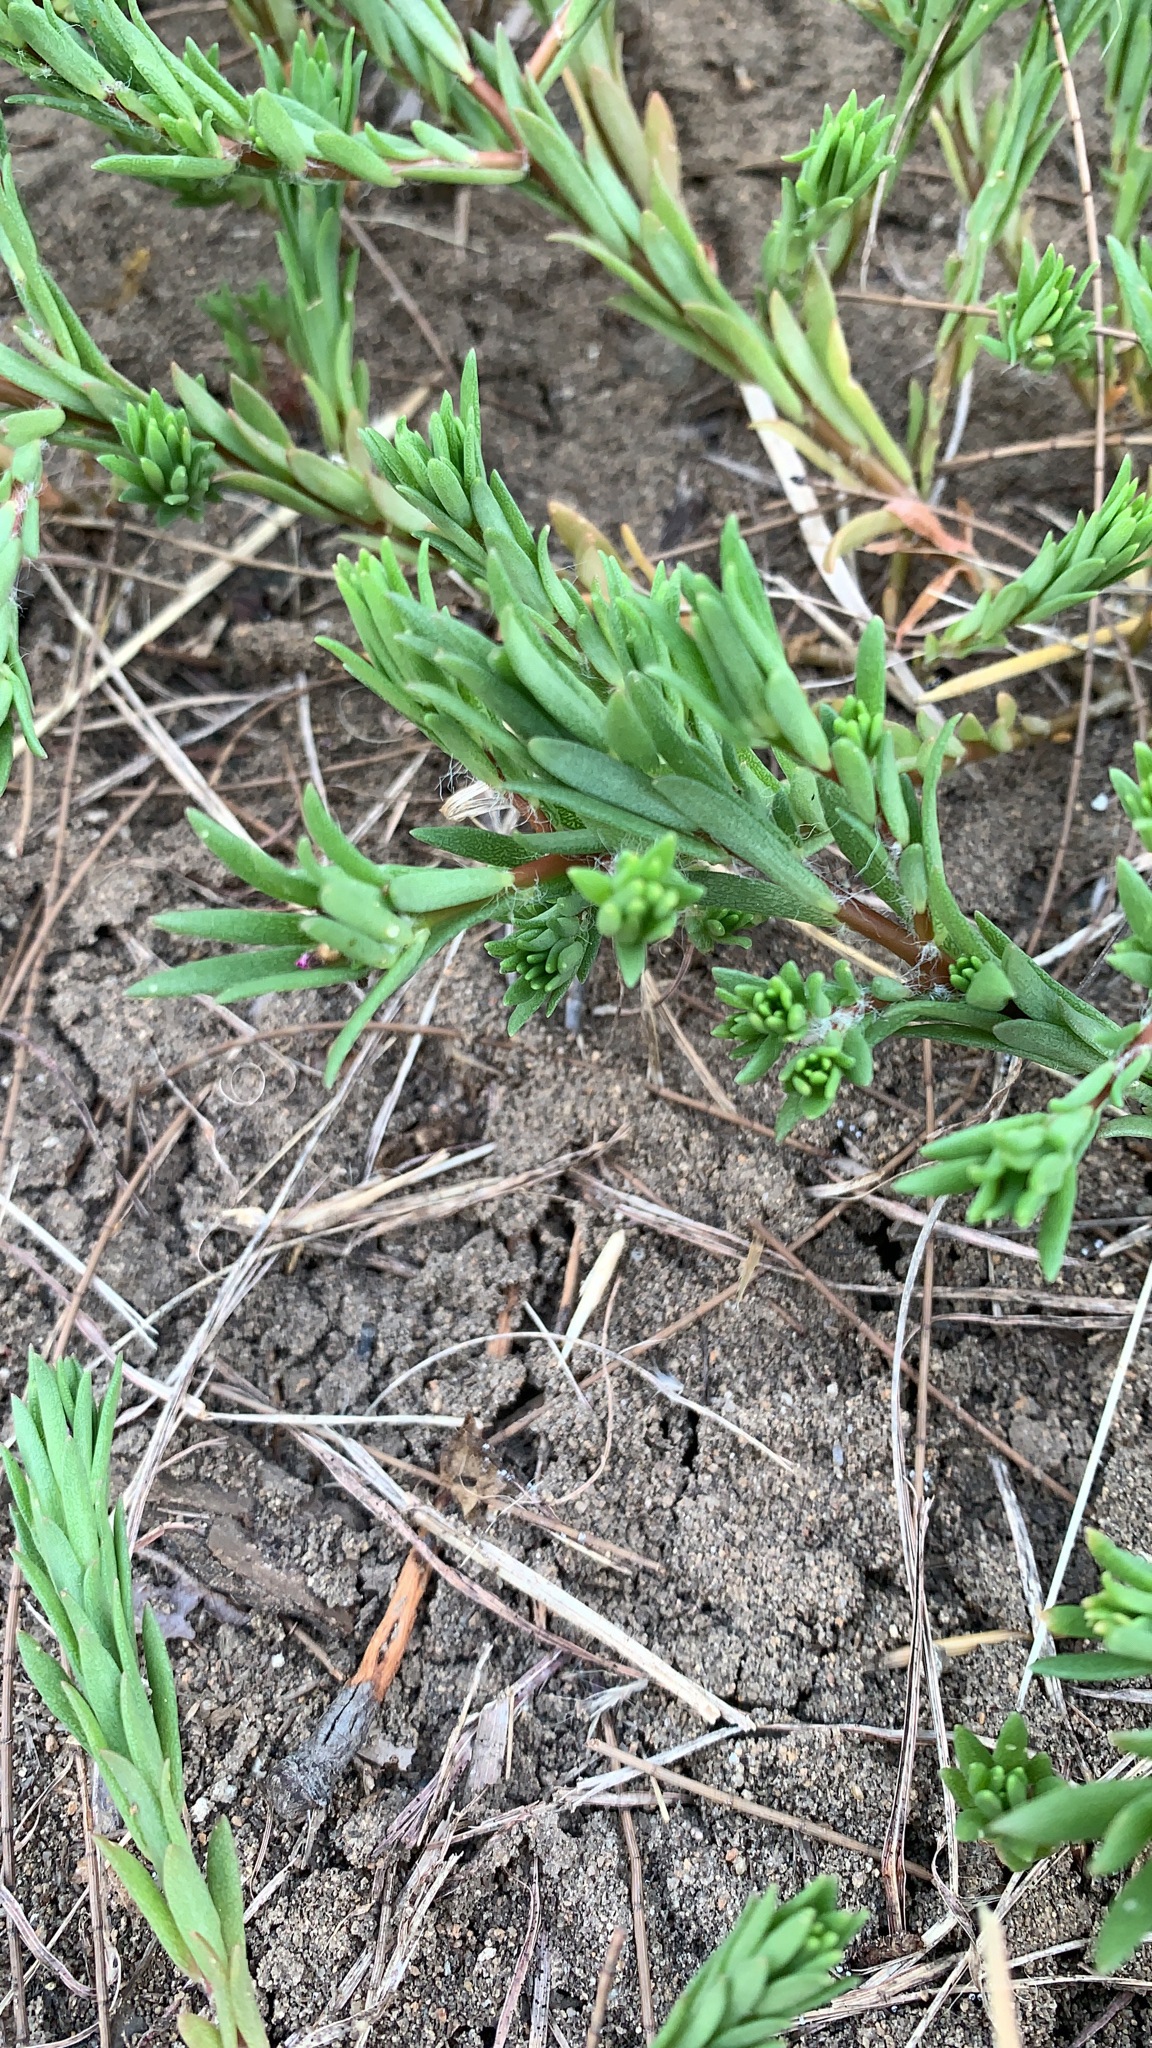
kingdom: Plantae
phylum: Tracheophyta
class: Magnoliopsida
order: Caryophyllales
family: Amaranthaceae
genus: Suaeda
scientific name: Suaeda maritima
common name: Annual sea-blite
